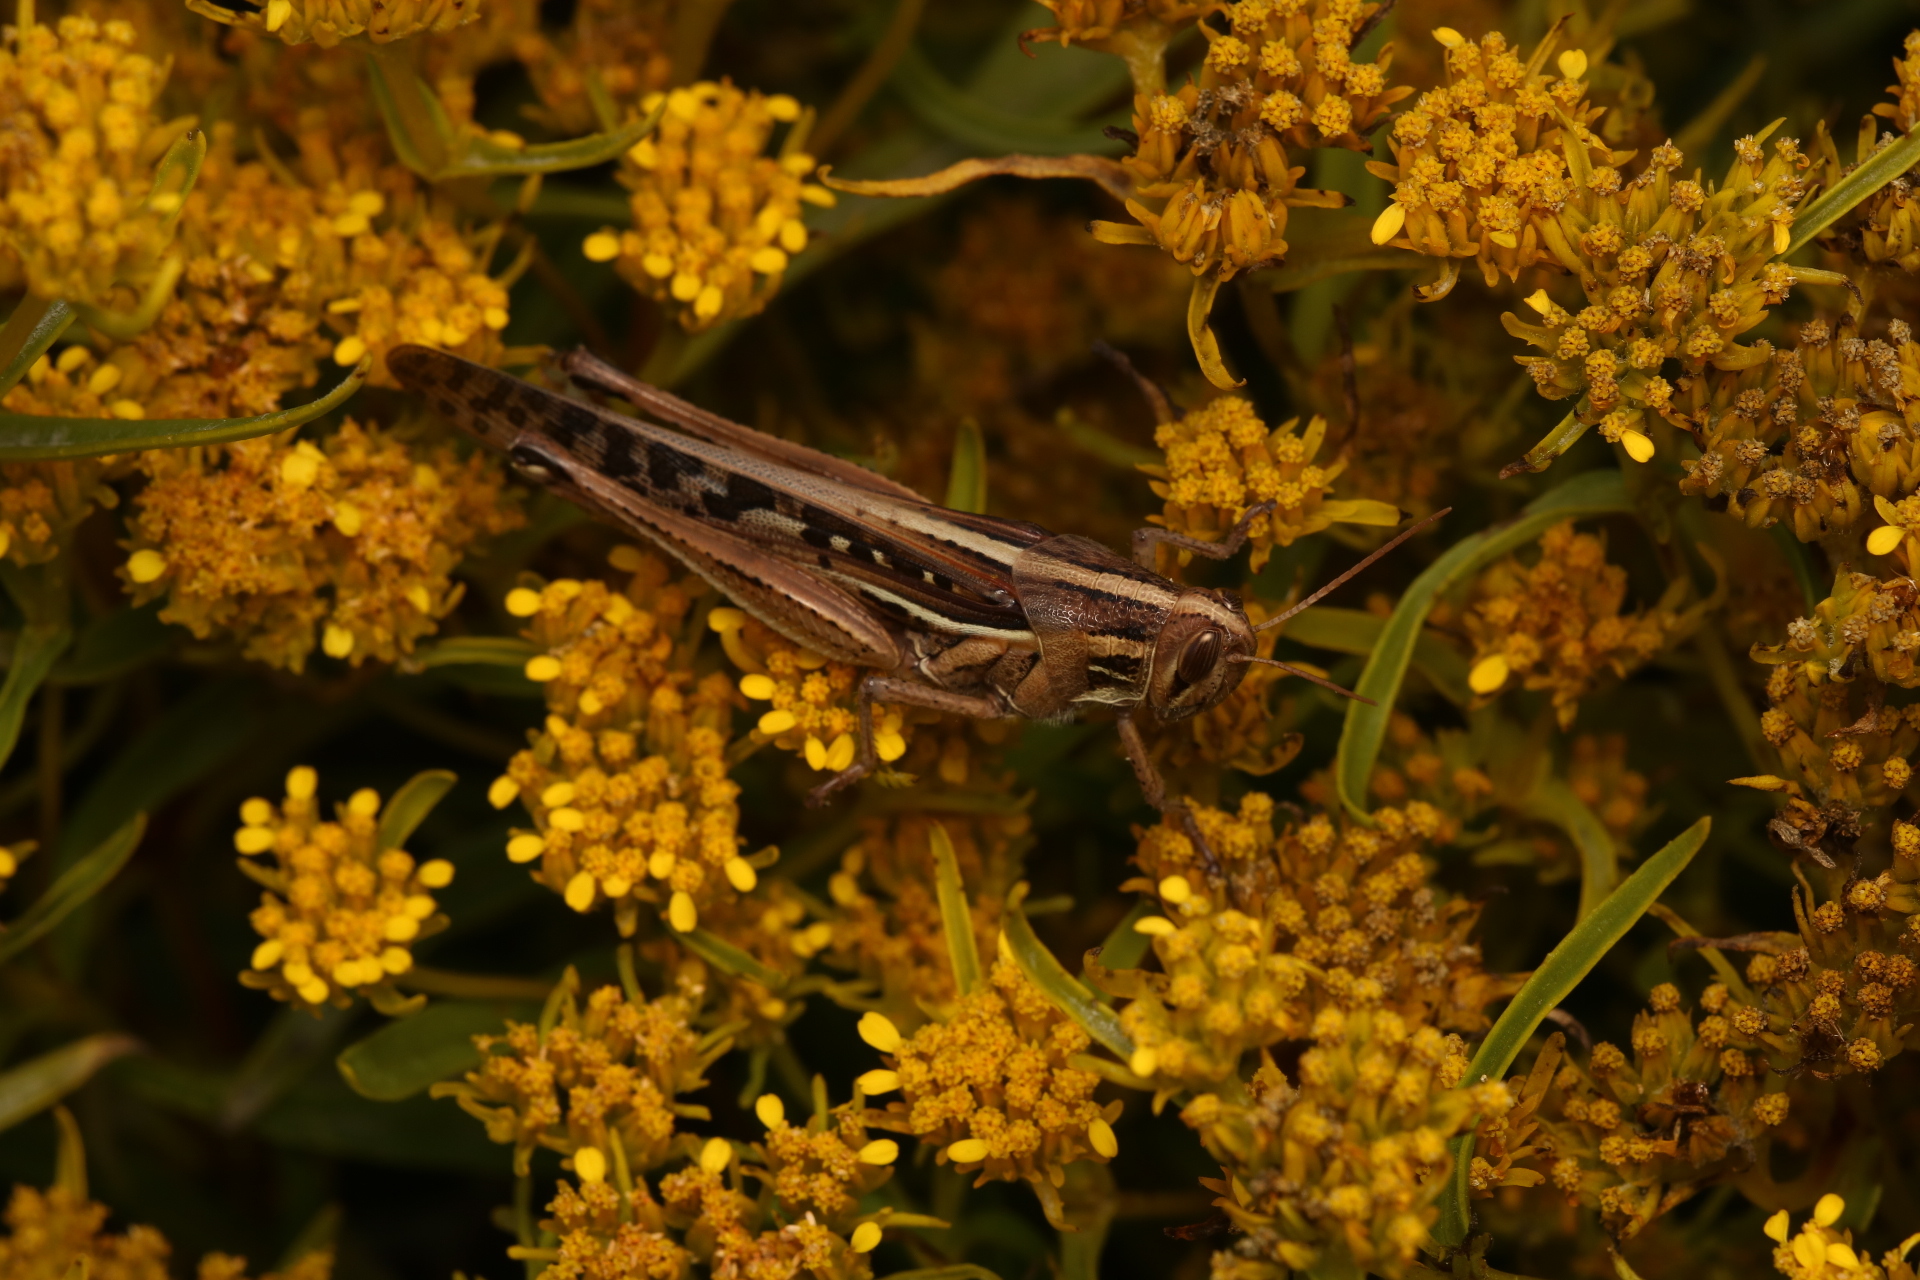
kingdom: Animalia
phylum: Arthropoda
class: Insecta
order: Orthoptera
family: Acrididae
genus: Schistocerca
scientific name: Schistocerca serialis
